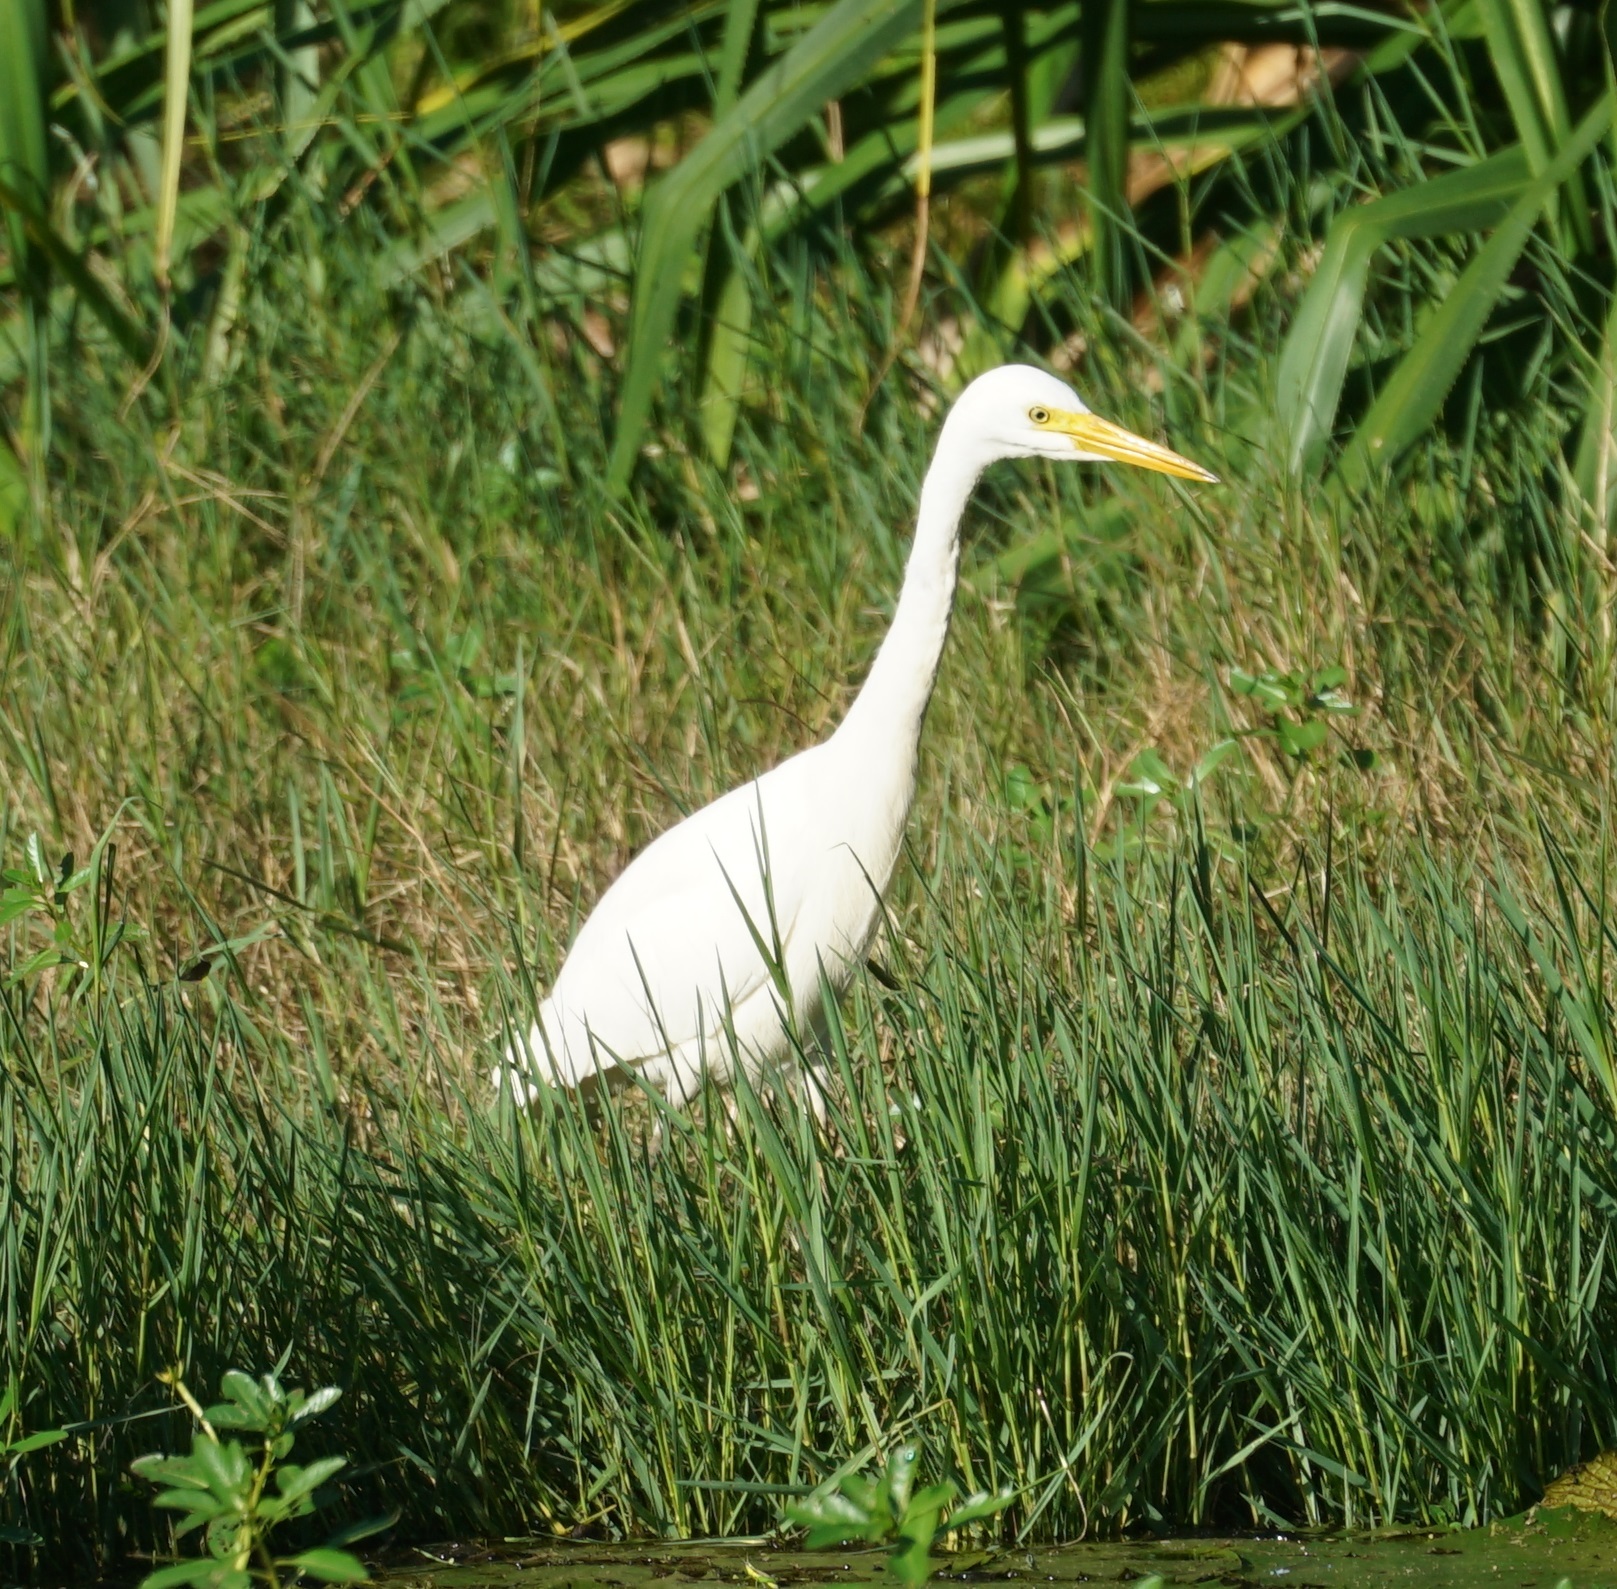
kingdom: Animalia
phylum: Chordata
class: Aves
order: Pelecaniformes
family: Ardeidae
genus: Egretta
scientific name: Egretta intermedia
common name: Intermediate egret
